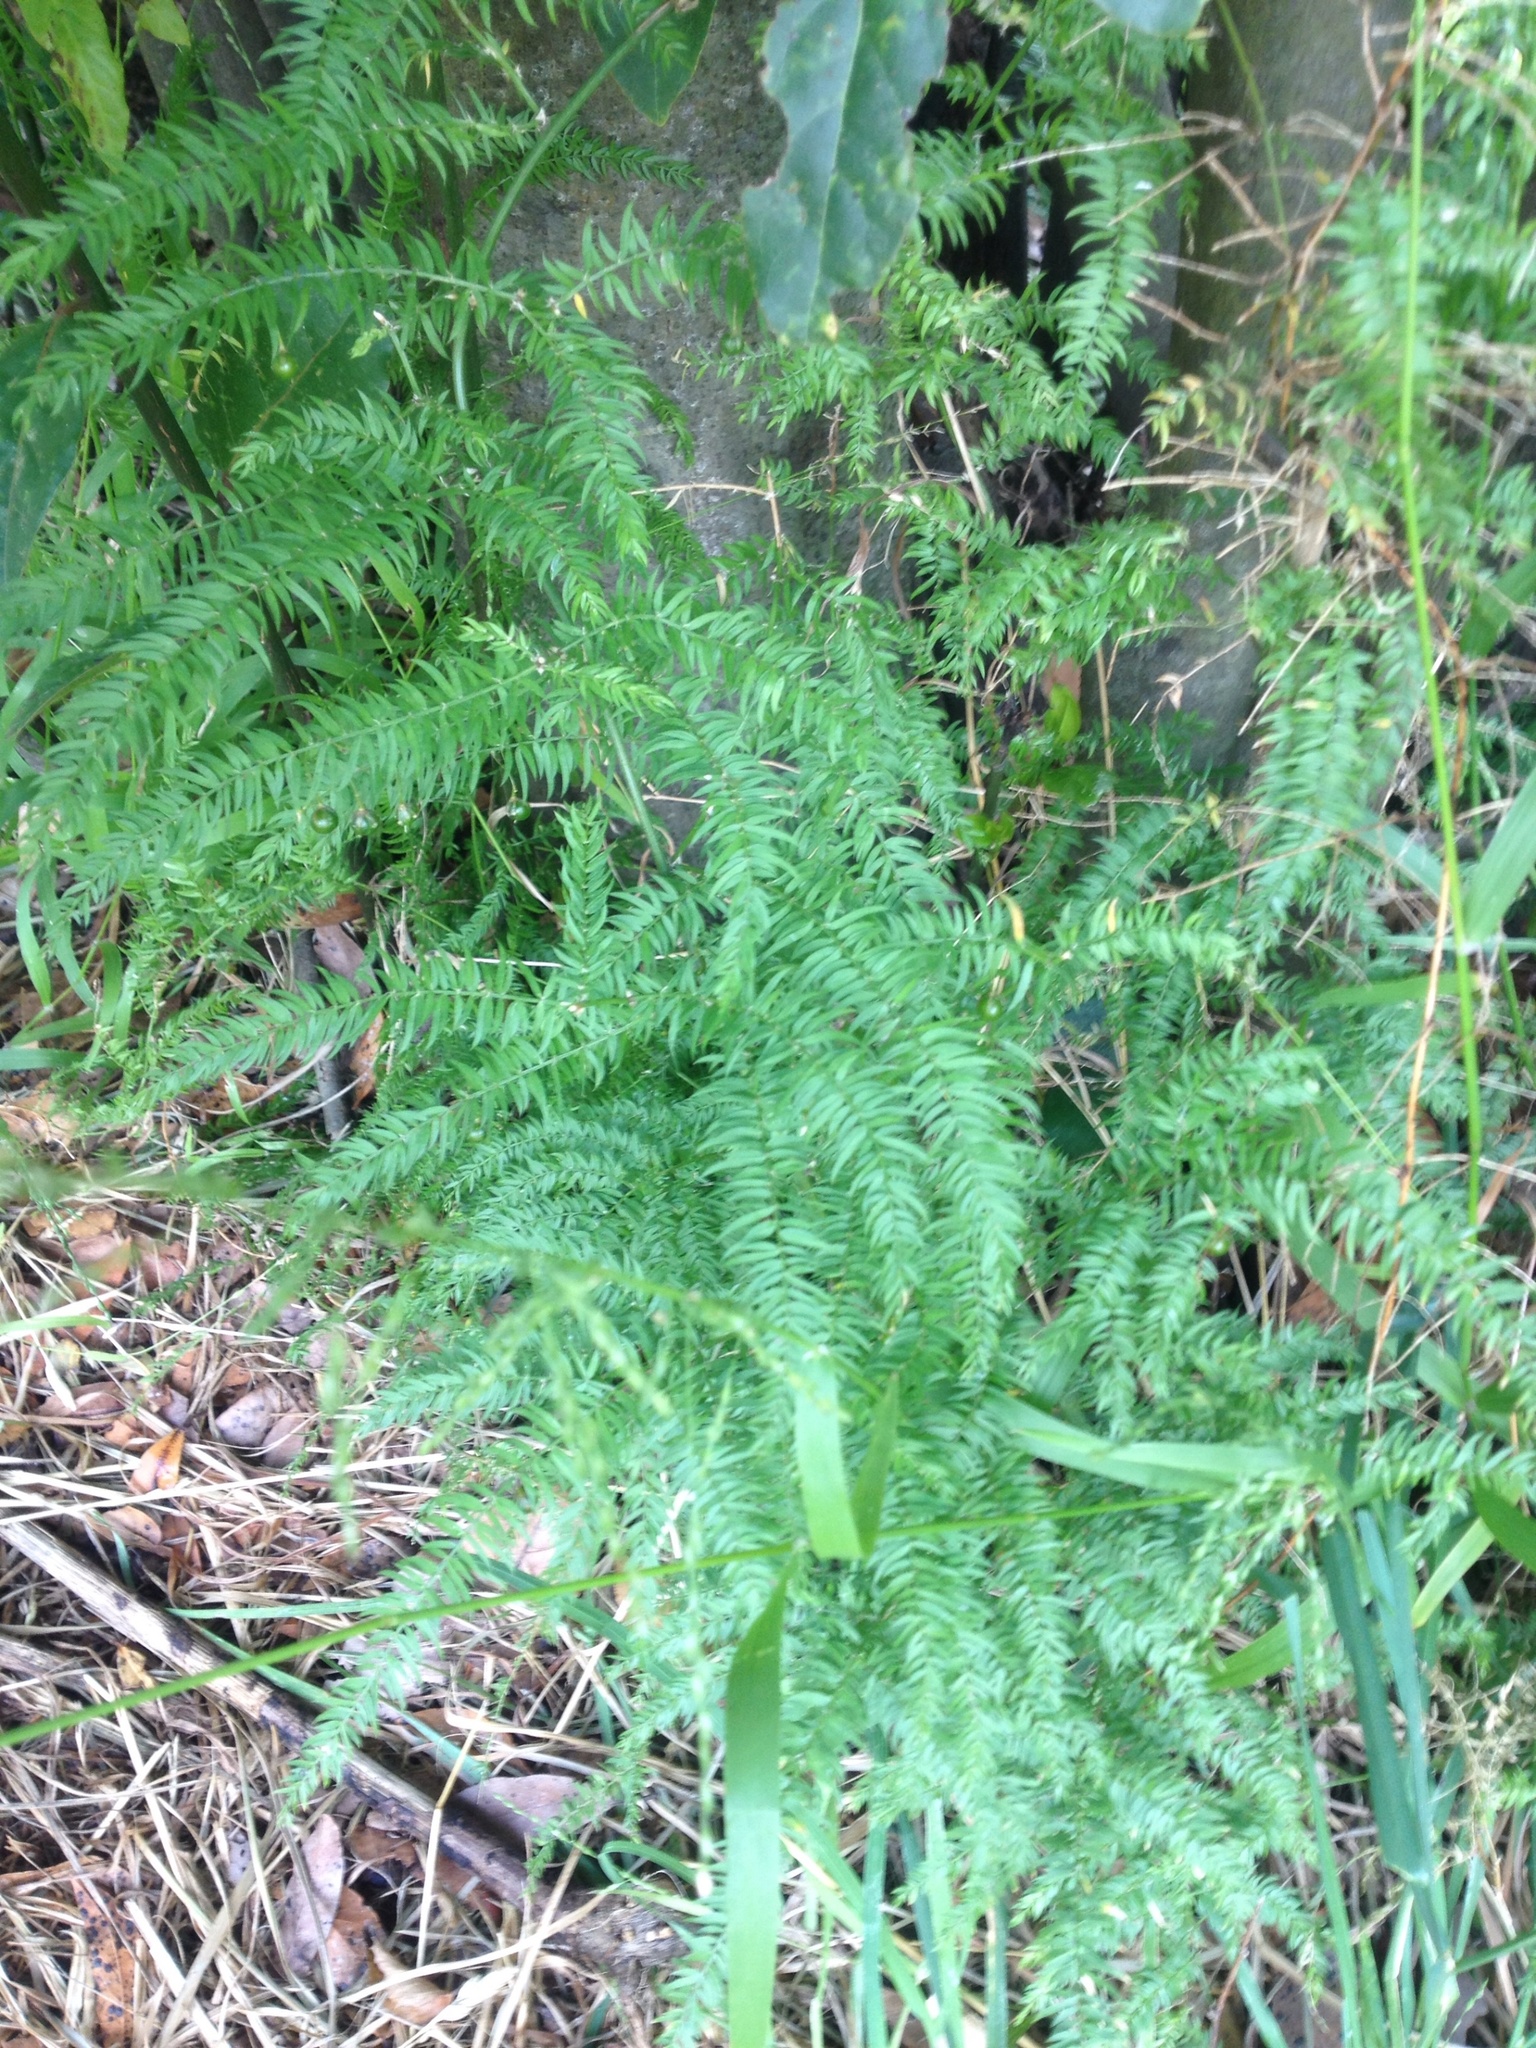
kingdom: Plantae
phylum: Tracheophyta
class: Liliopsida
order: Asparagales
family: Asparagaceae
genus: Asparagus
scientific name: Asparagus scandens
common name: Asparagus-fern
